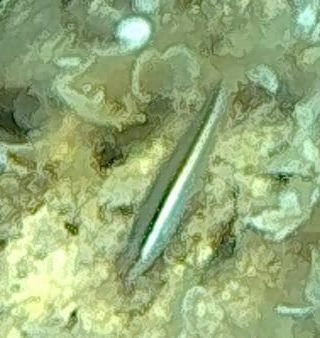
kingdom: Animalia
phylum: Chordata
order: Perciformes
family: Labridae
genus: Coris
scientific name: Coris julis
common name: Rainbow wrasse
